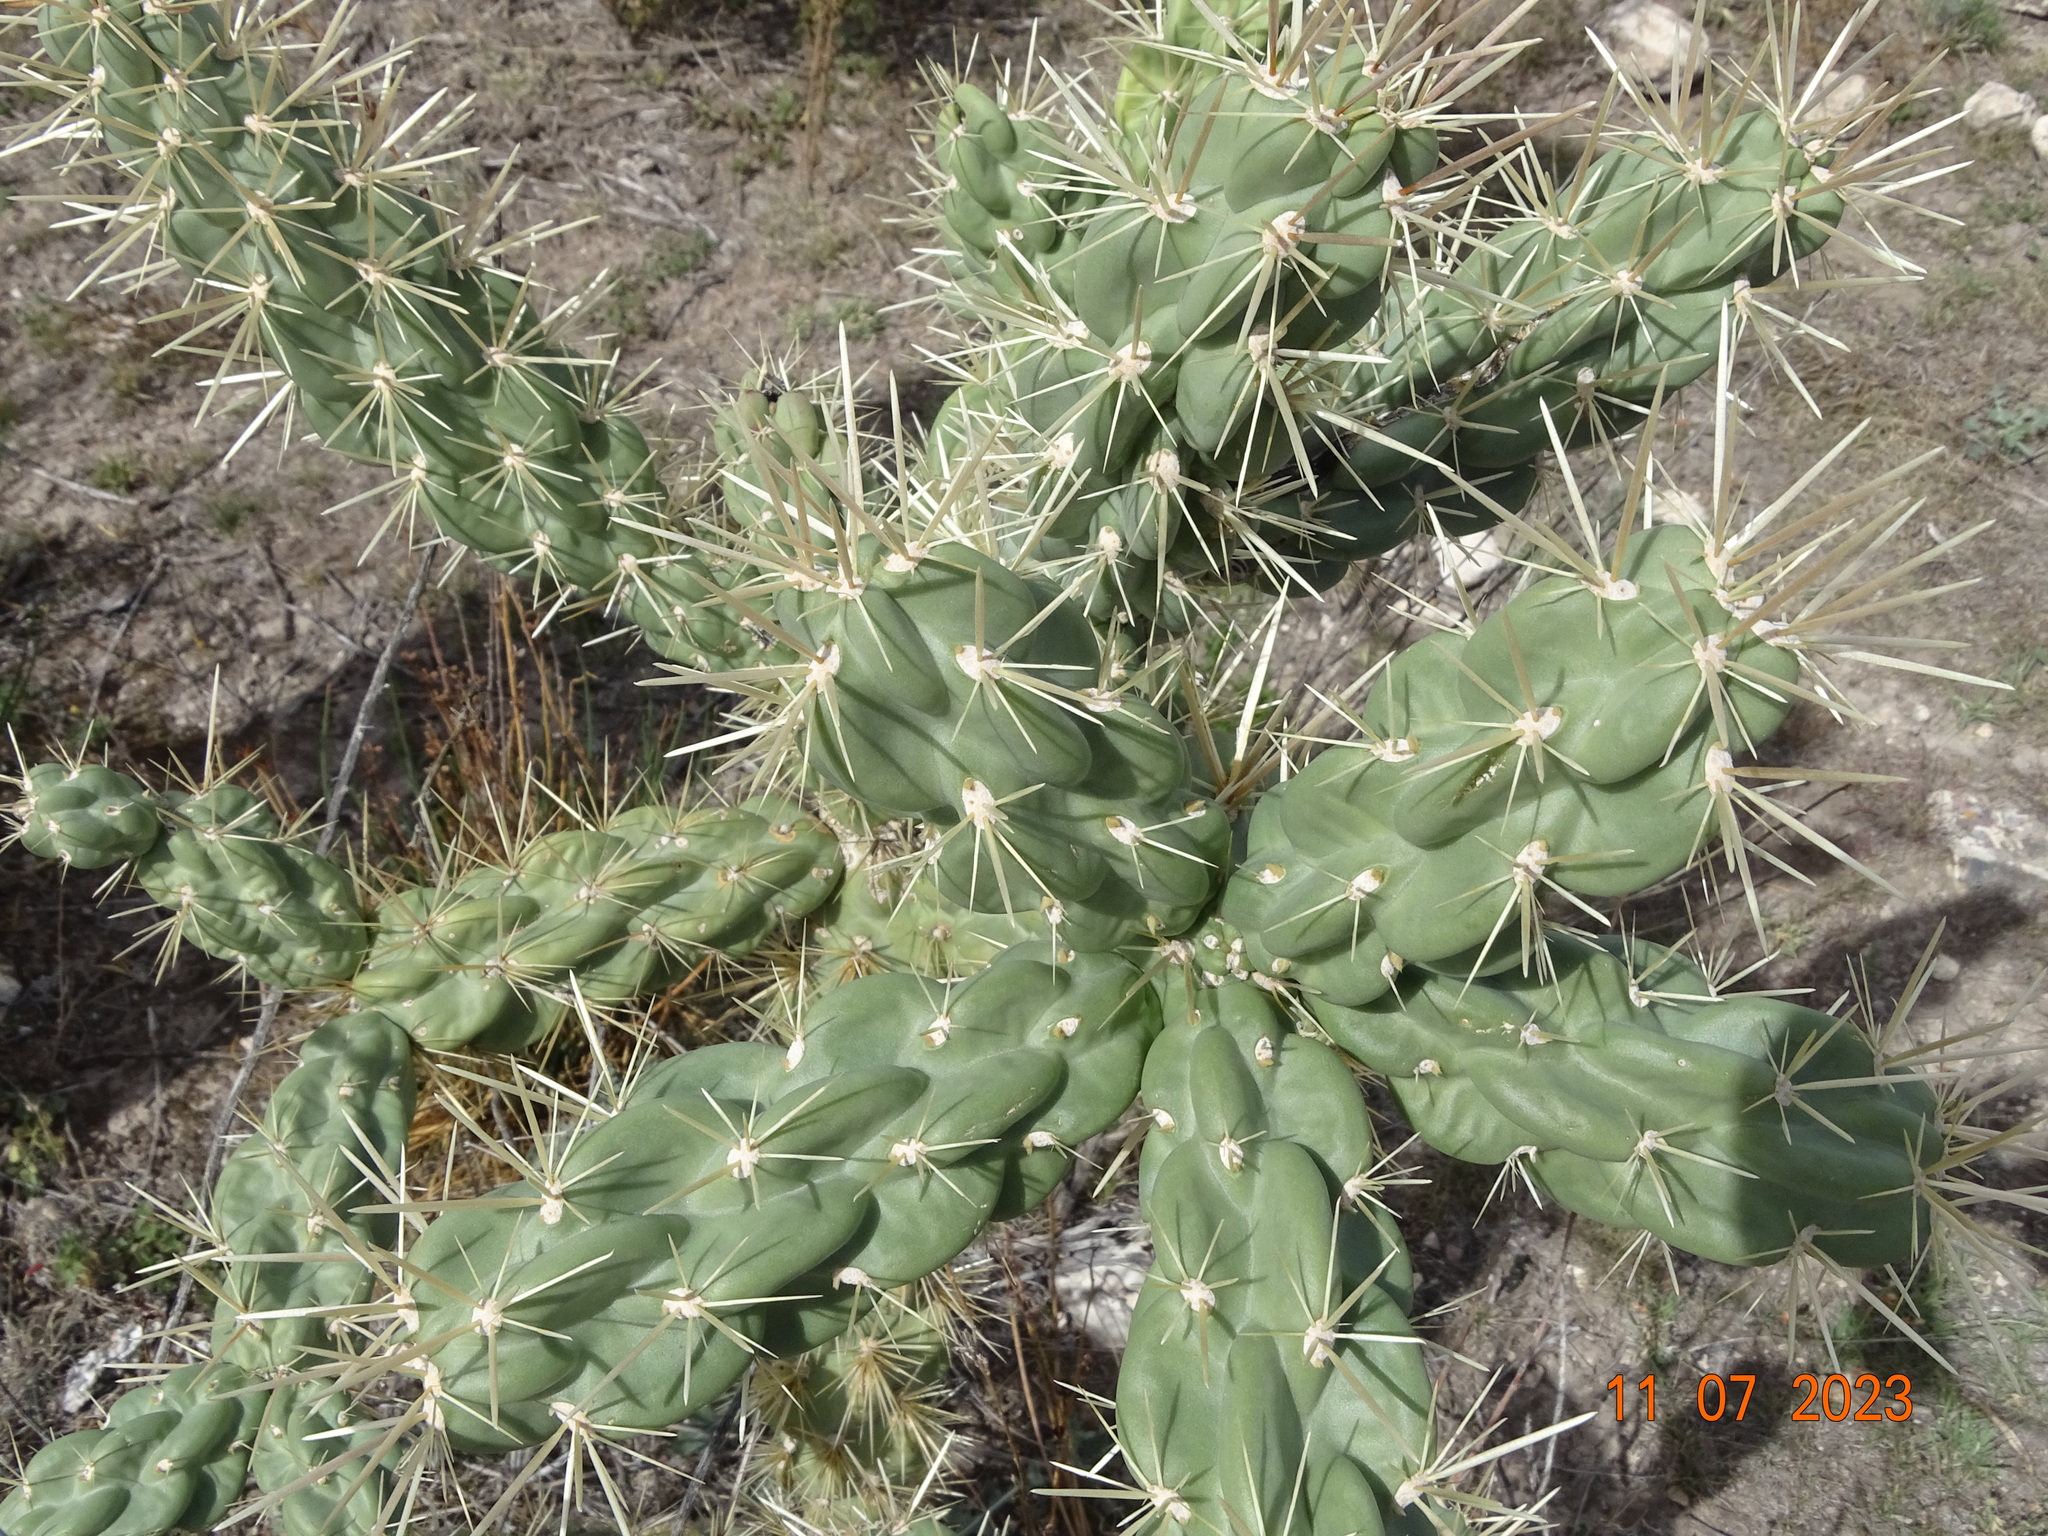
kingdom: Plantae
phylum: Tracheophyta
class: Magnoliopsida
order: Caryophyllales
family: Cactaceae
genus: Cylindropuntia
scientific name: Cylindropuntia imbricata
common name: Candelabrum cactus
